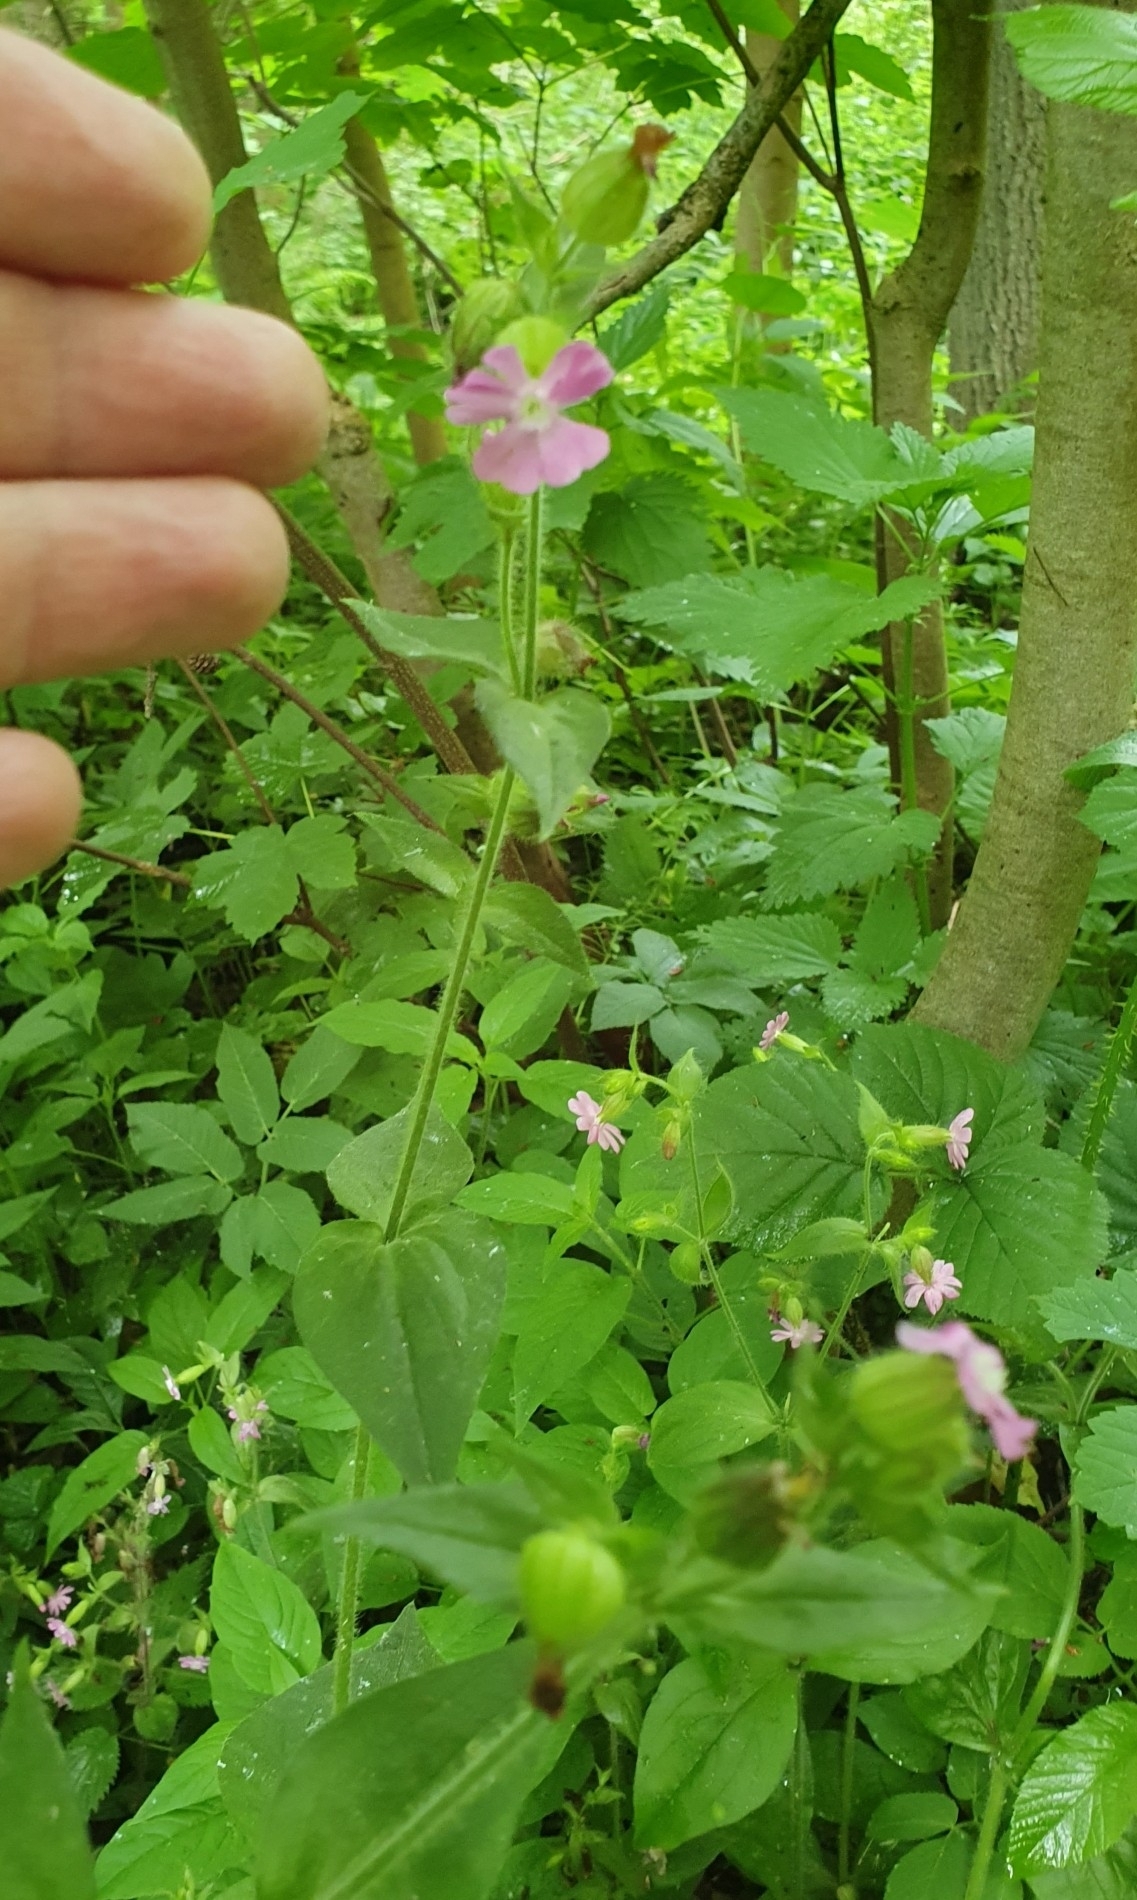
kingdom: Plantae
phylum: Tracheophyta
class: Magnoliopsida
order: Caryophyllales
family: Caryophyllaceae
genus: Silene
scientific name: Silene dioica
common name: Red campion
